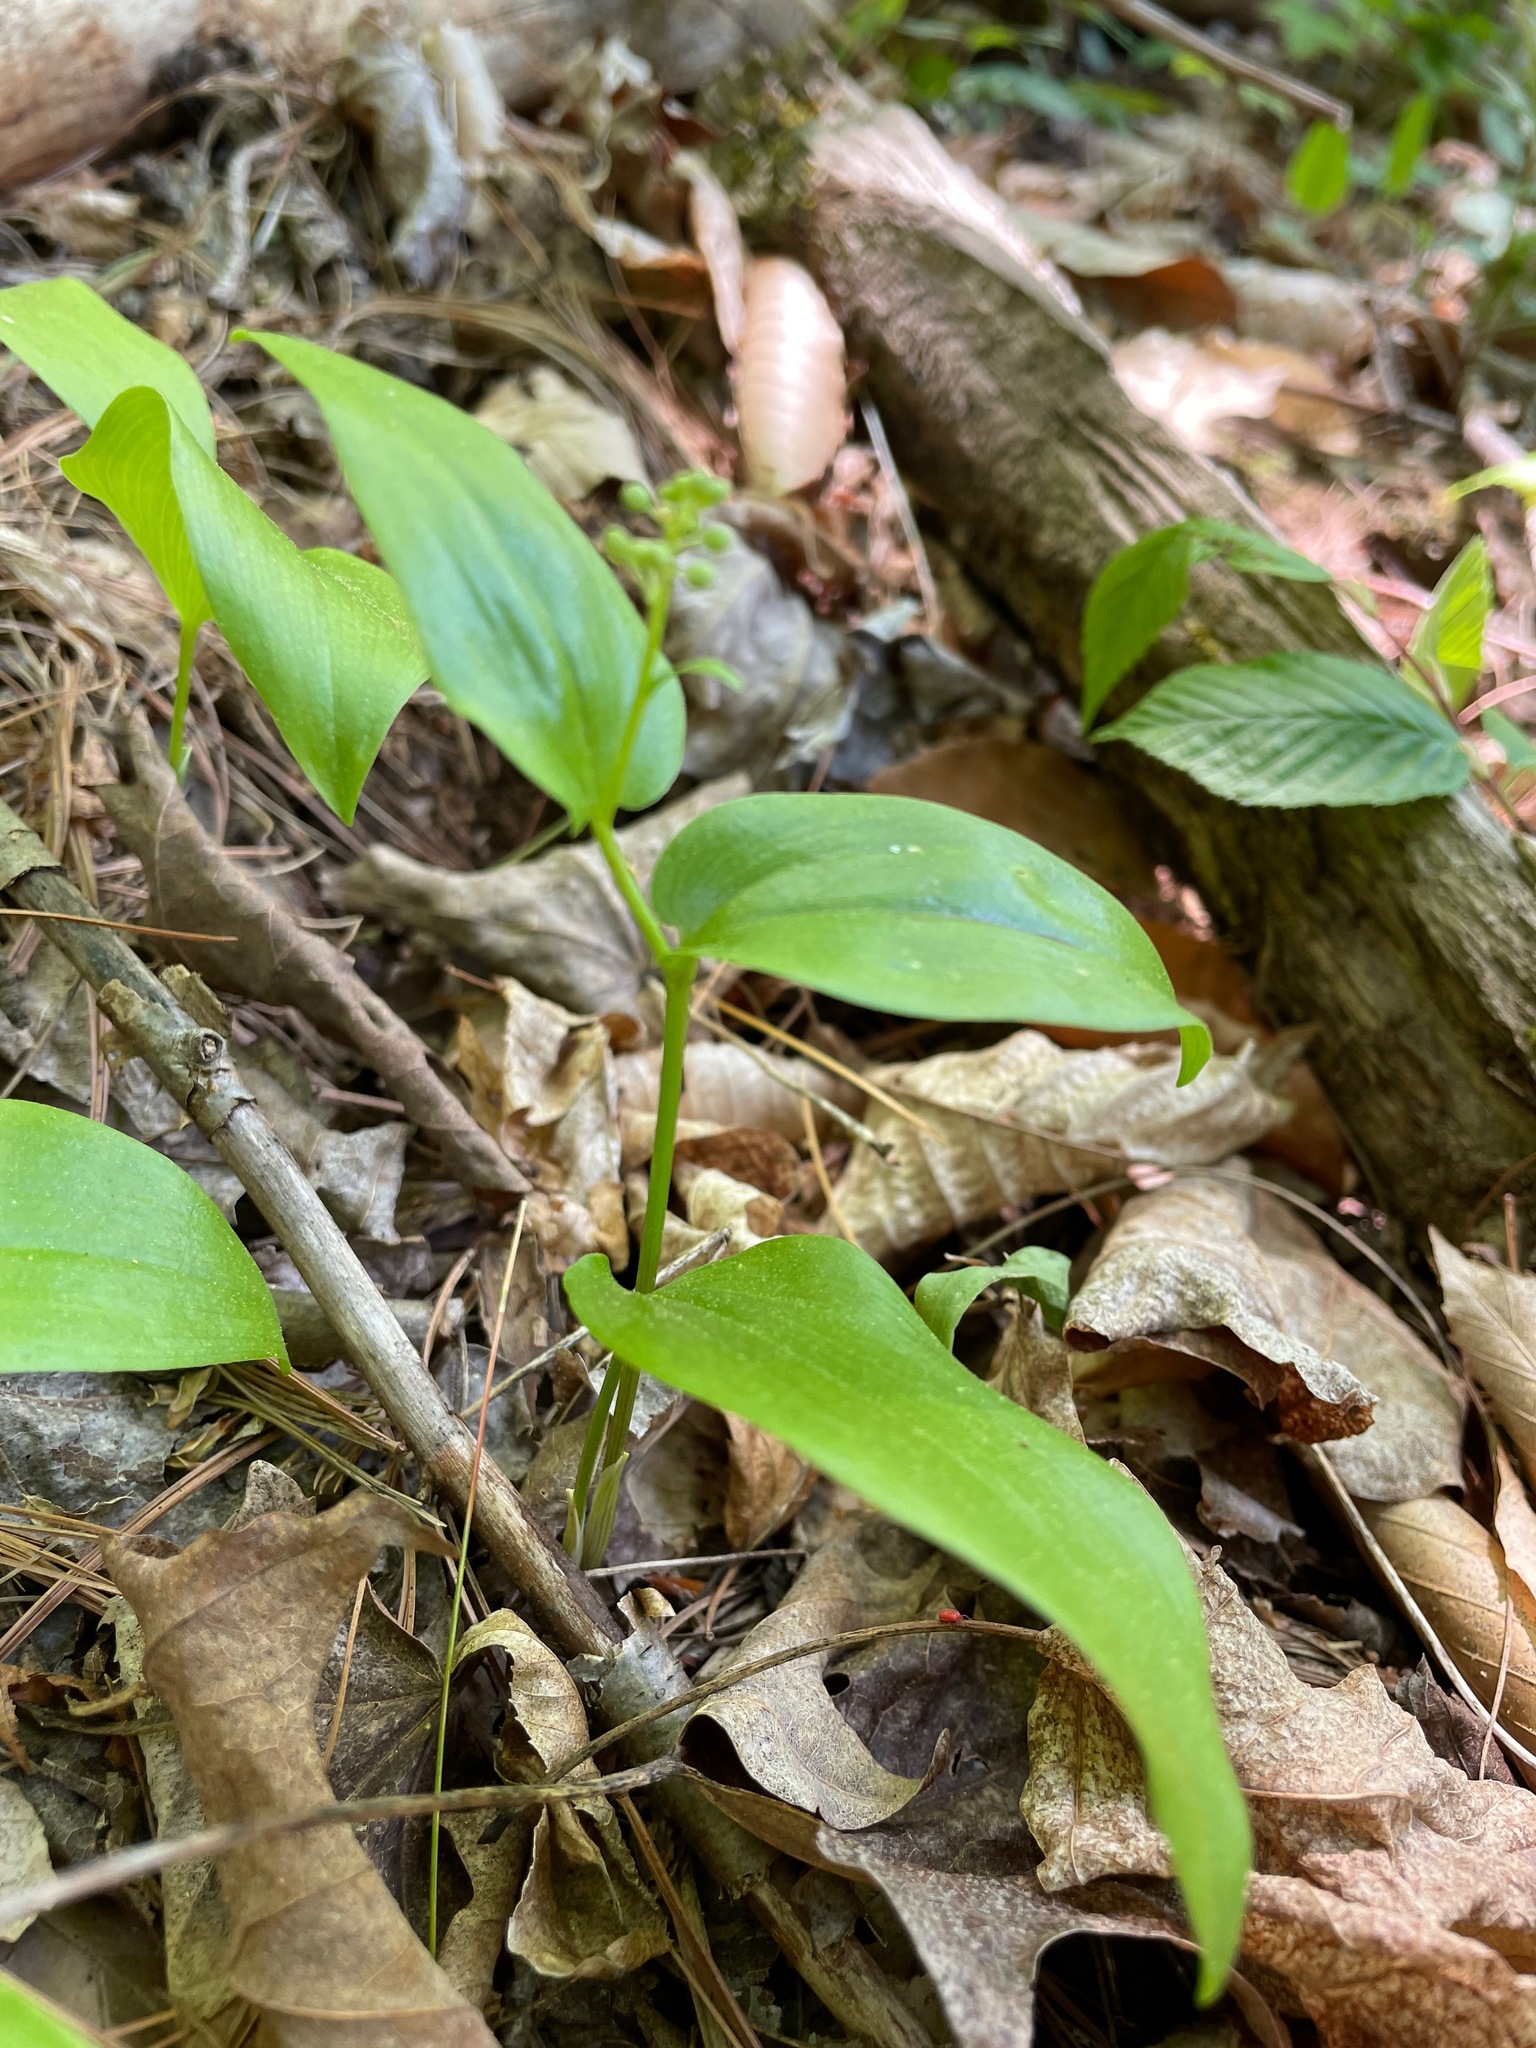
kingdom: Plantae
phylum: Tracheophyta
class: Liliopsida
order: Asparagales
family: Asparagaceae
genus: Maianthemum
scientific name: Maianthemum canadense
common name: False lily-of-the-valley
